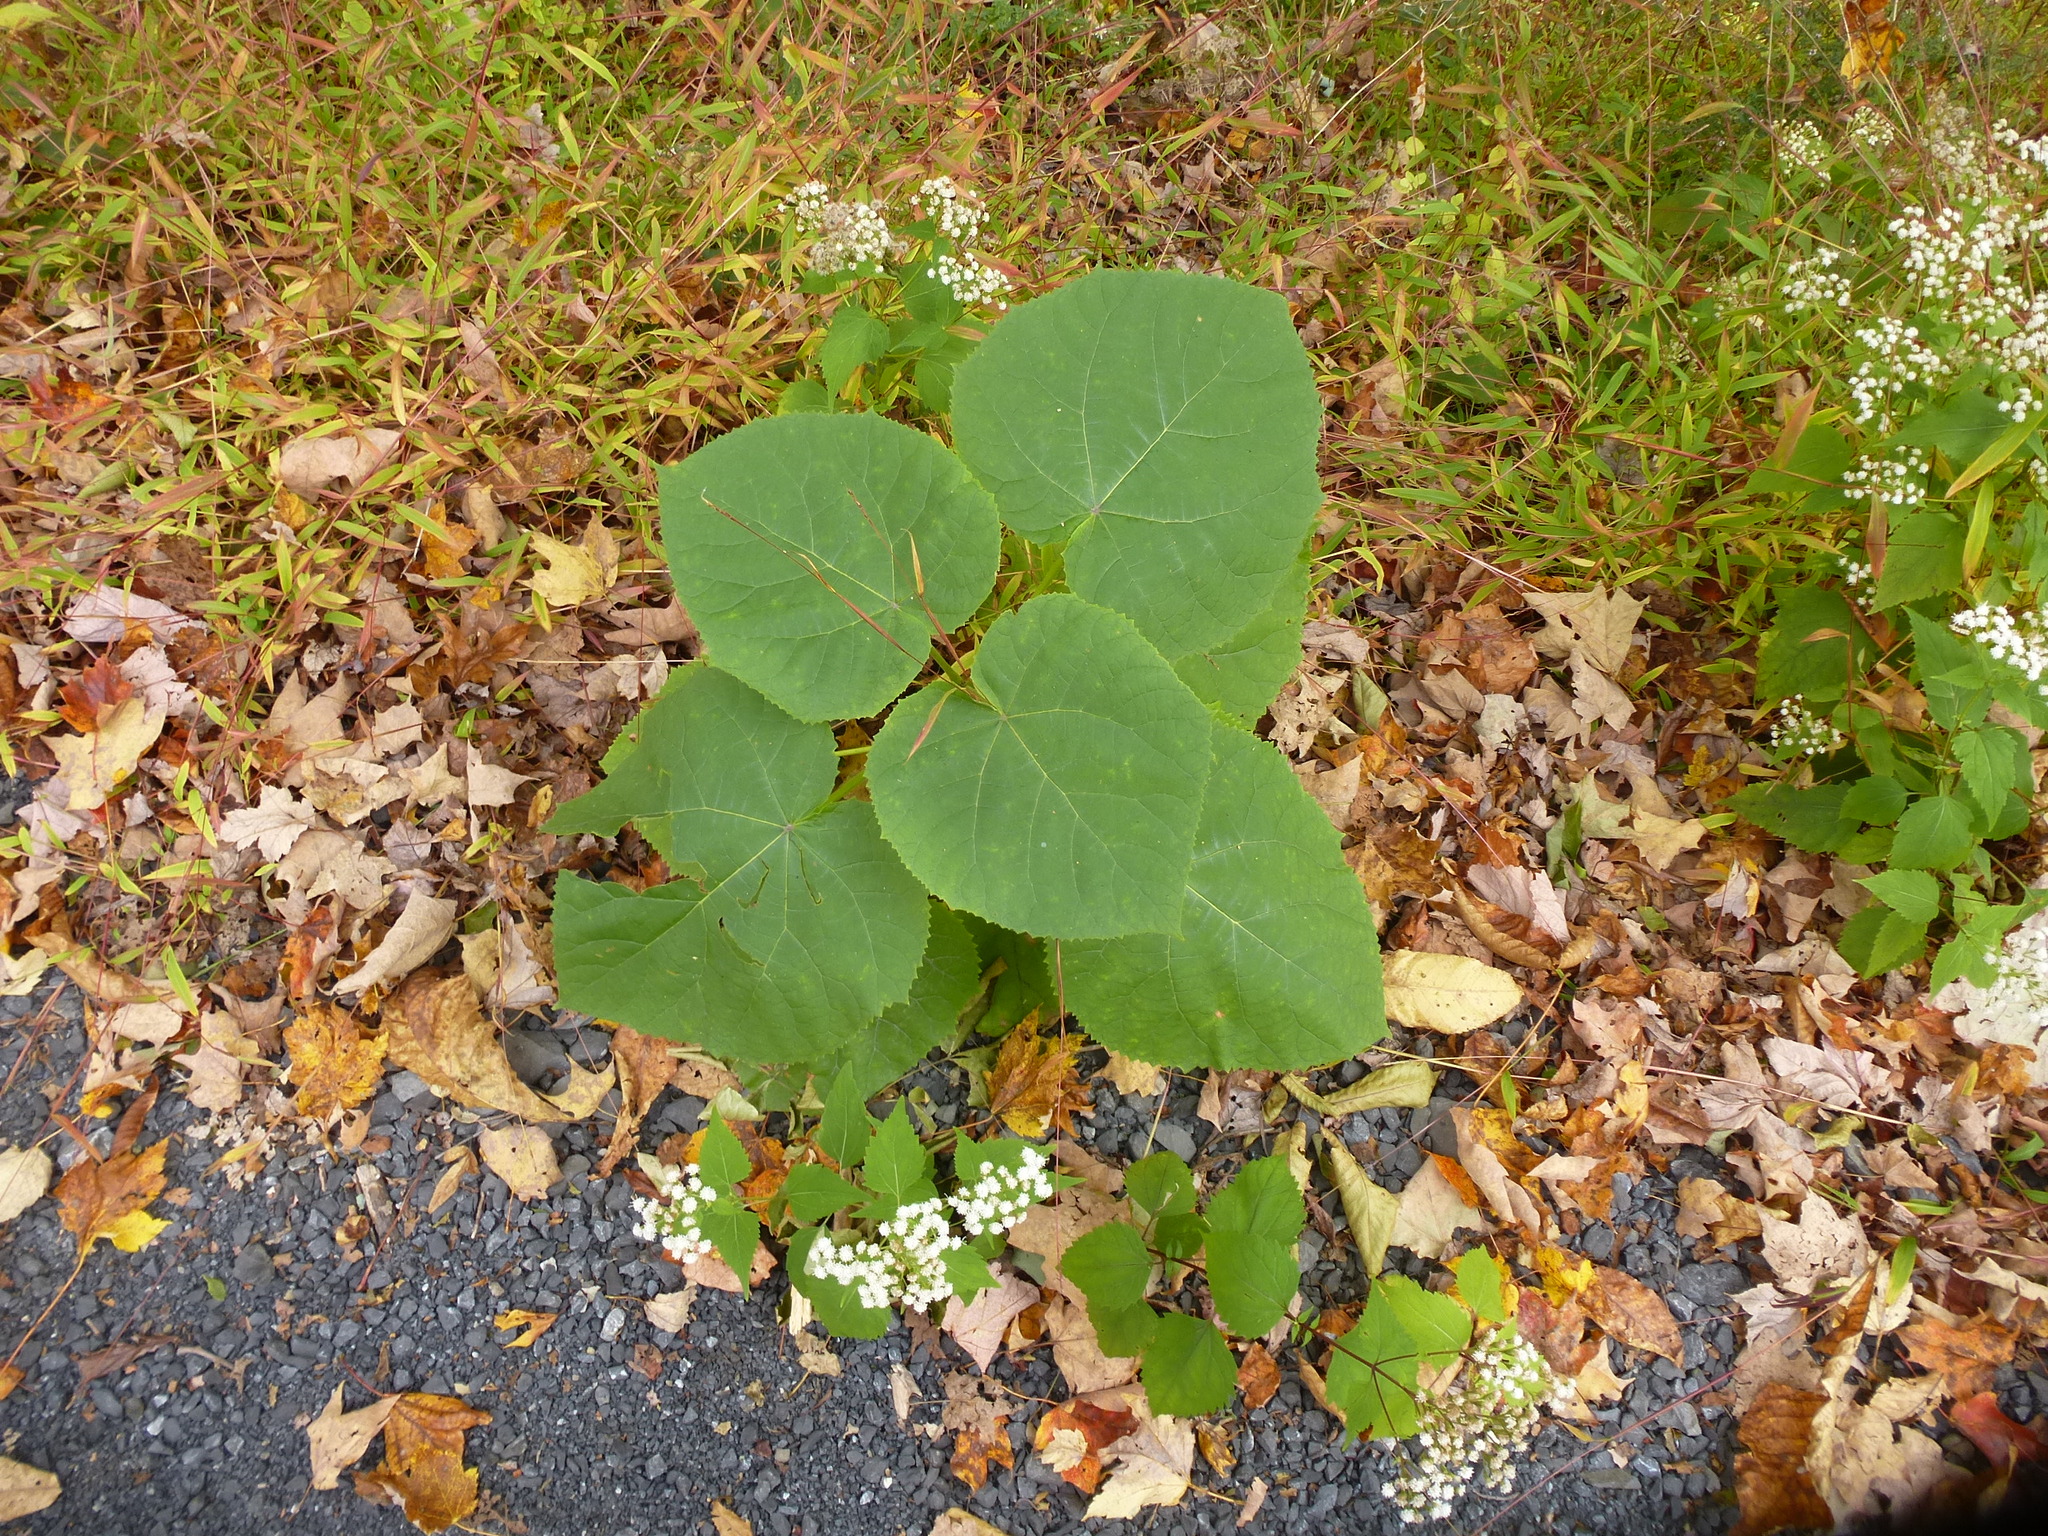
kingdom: Plantae
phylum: Tracheophyta
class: Magnoliopsida
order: Lamiales
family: Paulowniaceae
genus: Paulownia
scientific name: Paulownia tomentosa
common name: Foxglove-tree
